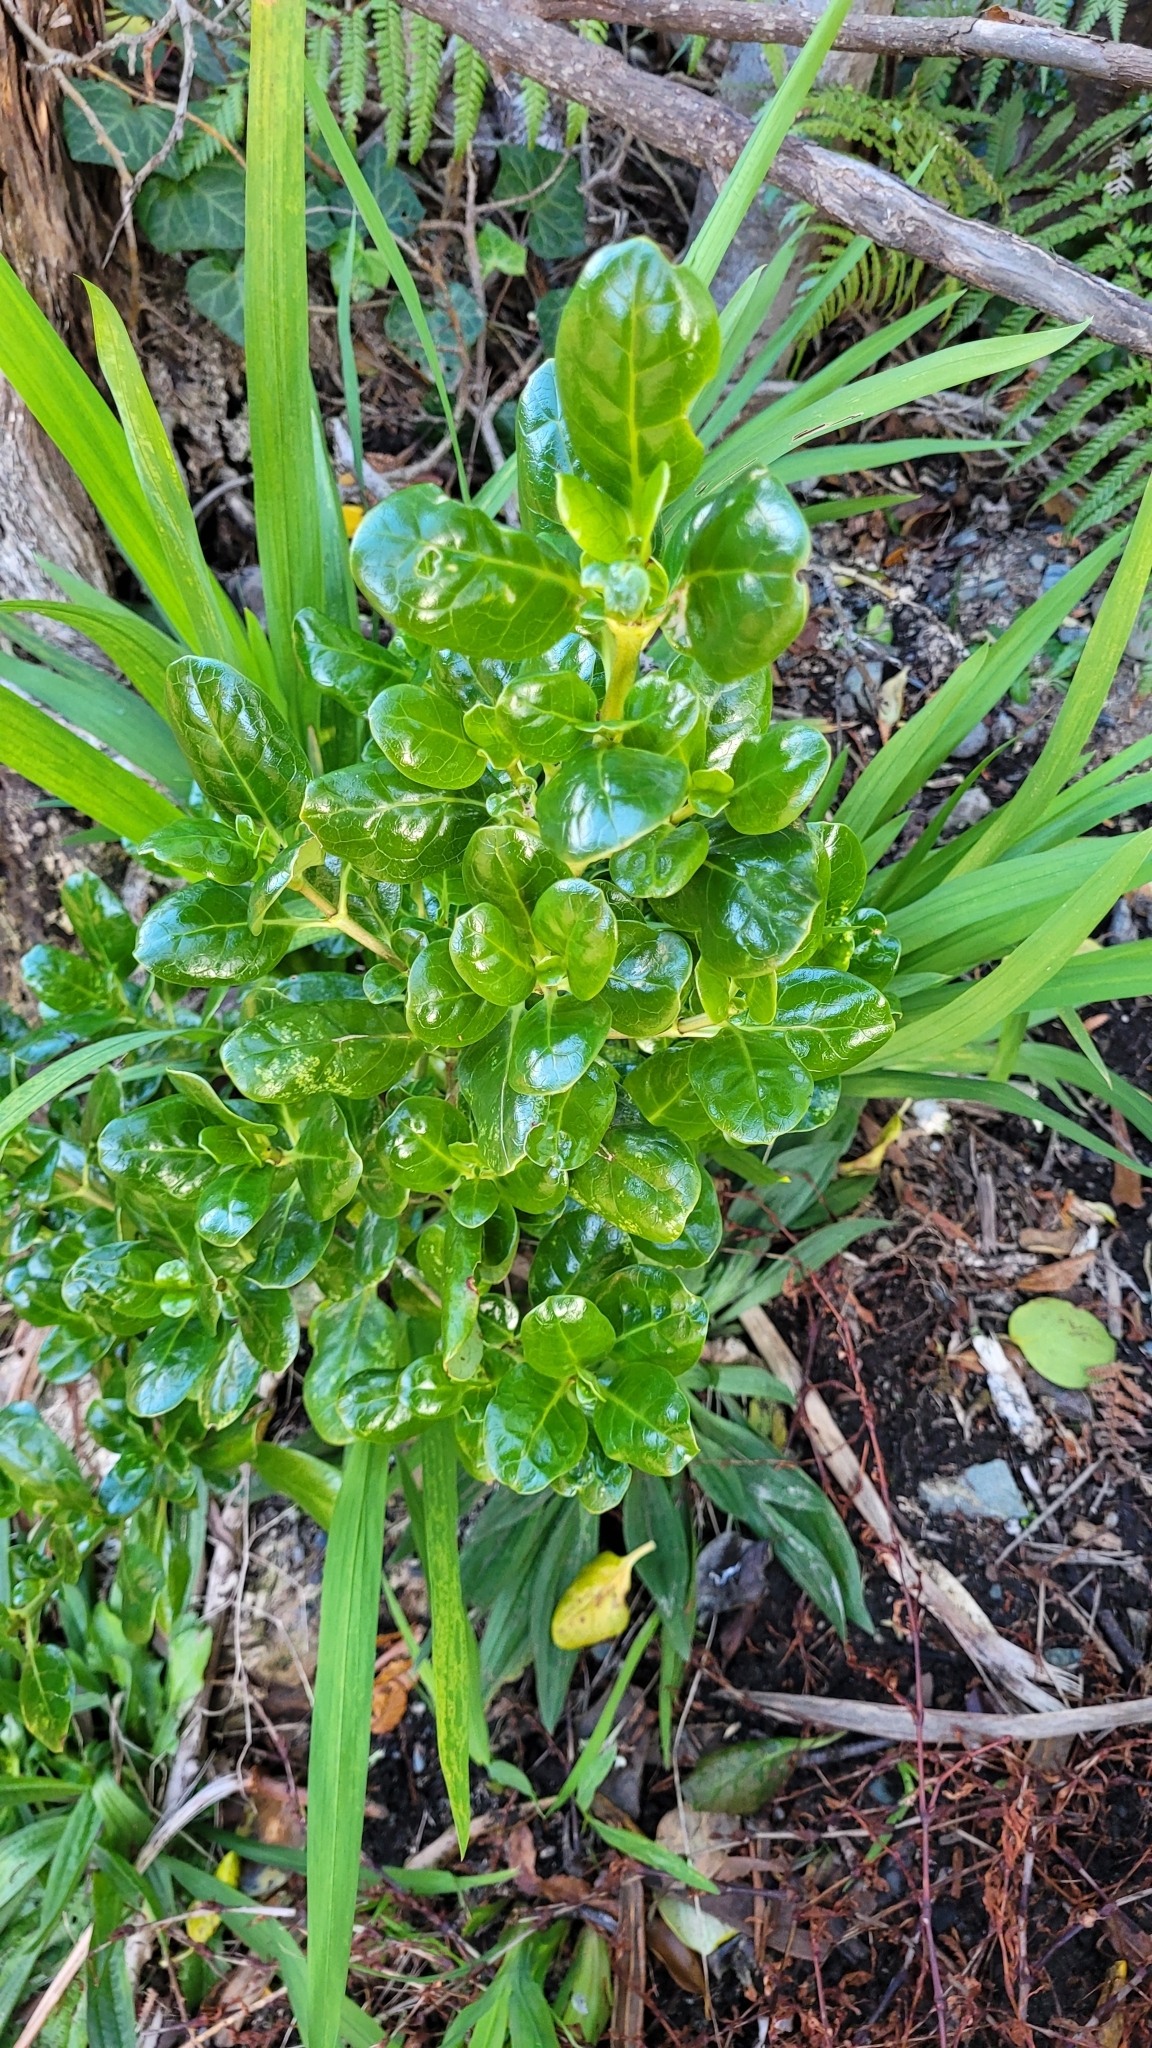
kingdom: Plantae
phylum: Tracheophyta
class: Magnoliopsida
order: Gentianales
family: Rubiaceae
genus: Coprosma
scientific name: Coprosma repens
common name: Tree bedstraw
